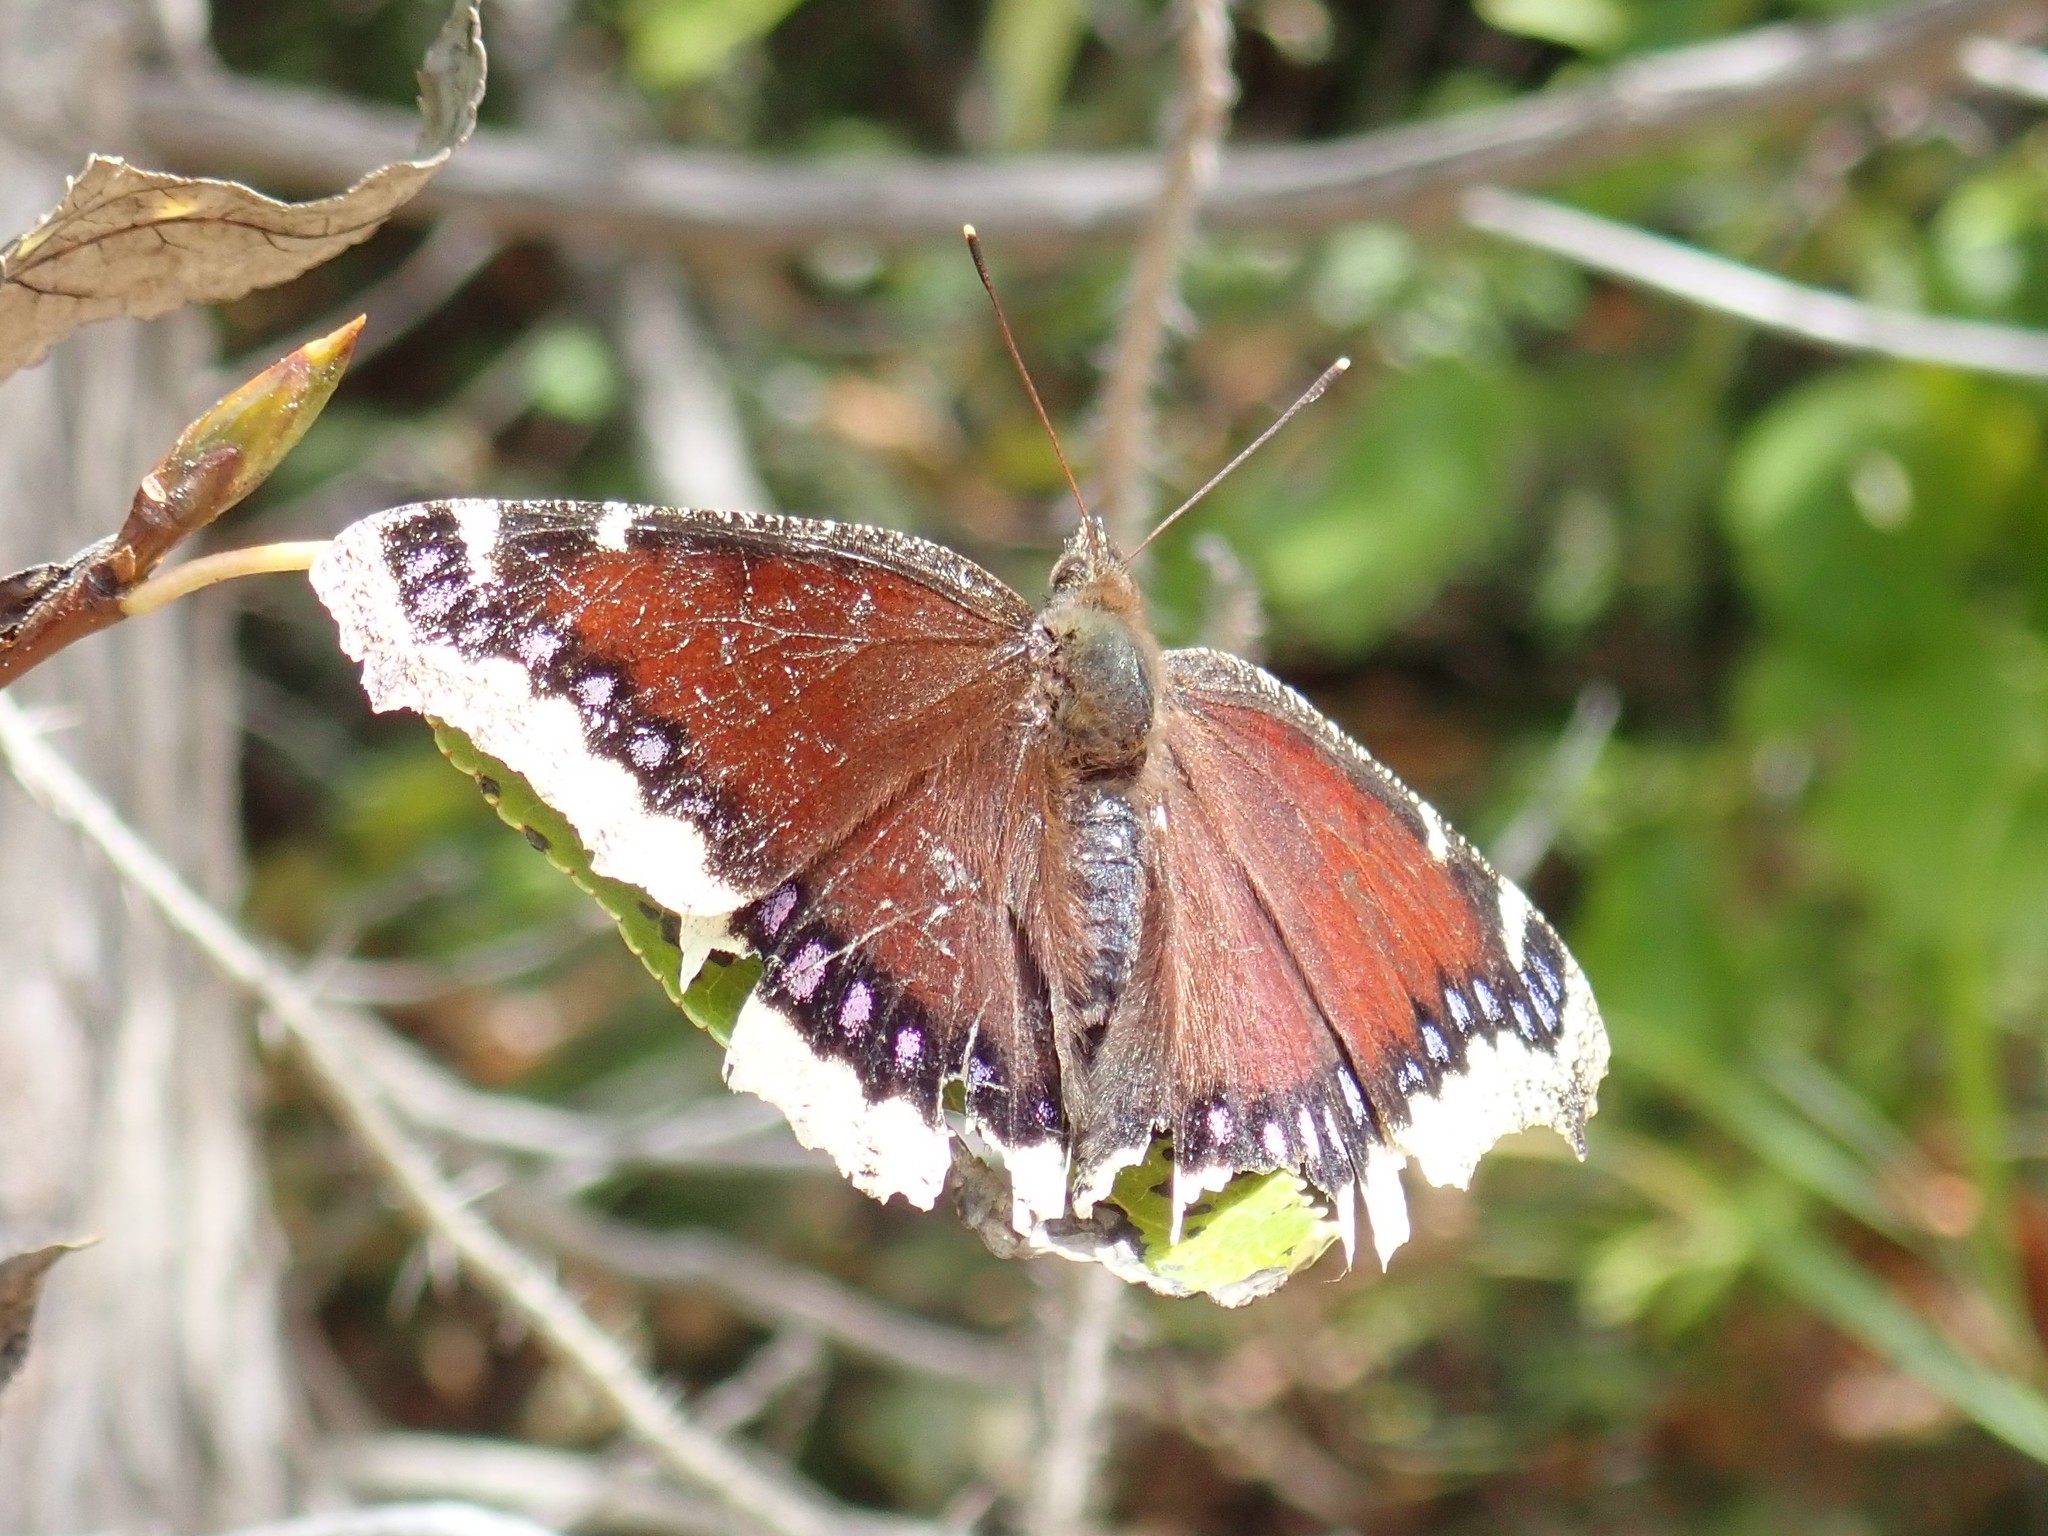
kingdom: Animalia
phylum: Arthropoda
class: Insecta
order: Lepidoptera
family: Nymphalidae
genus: Nymphalis
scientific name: Nymphalis antiopa
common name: Camberwell beauty
